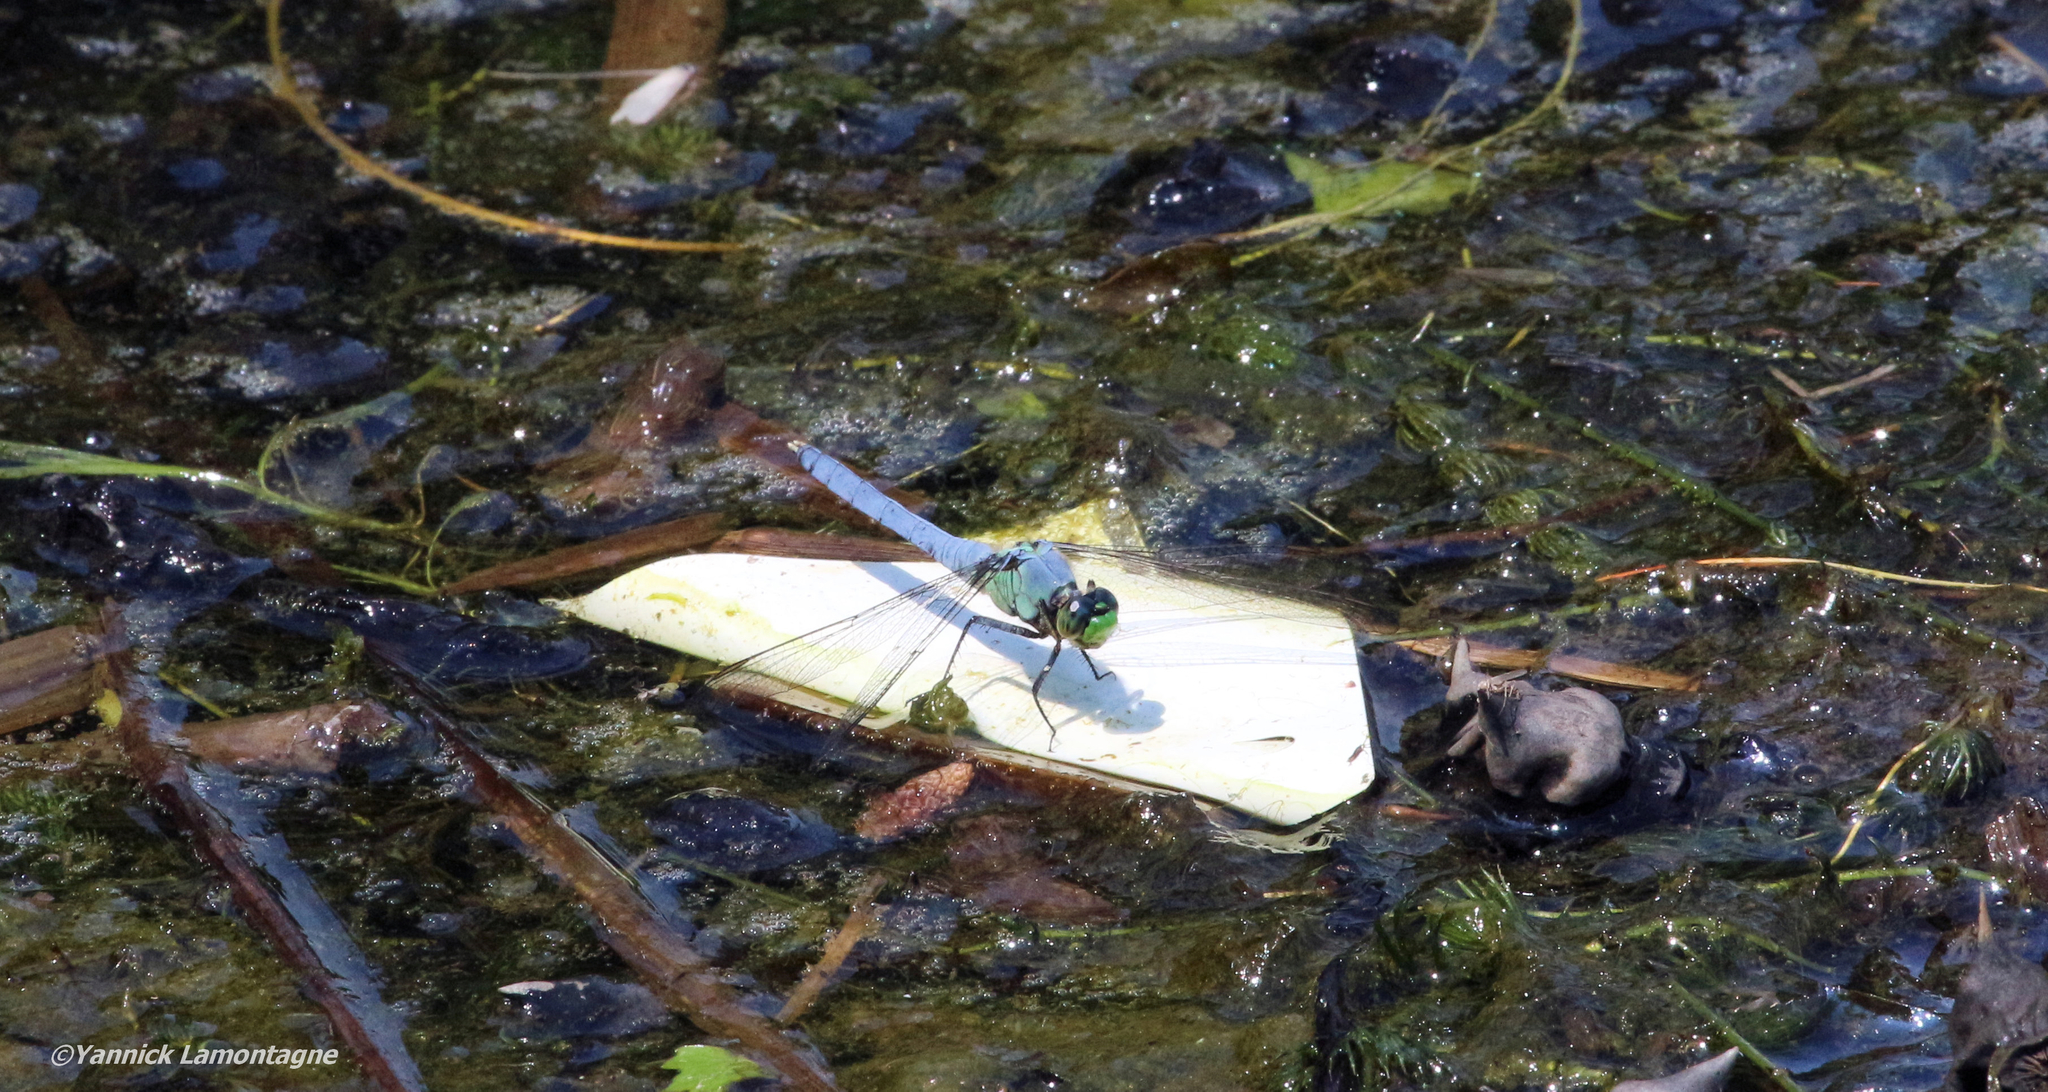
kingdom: Animalia
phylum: Arthropoda
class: Insecta
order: Odonata
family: Libellulidae
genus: Erythemis
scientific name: Erythemis simplicicollis
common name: Eastern pondhawk
